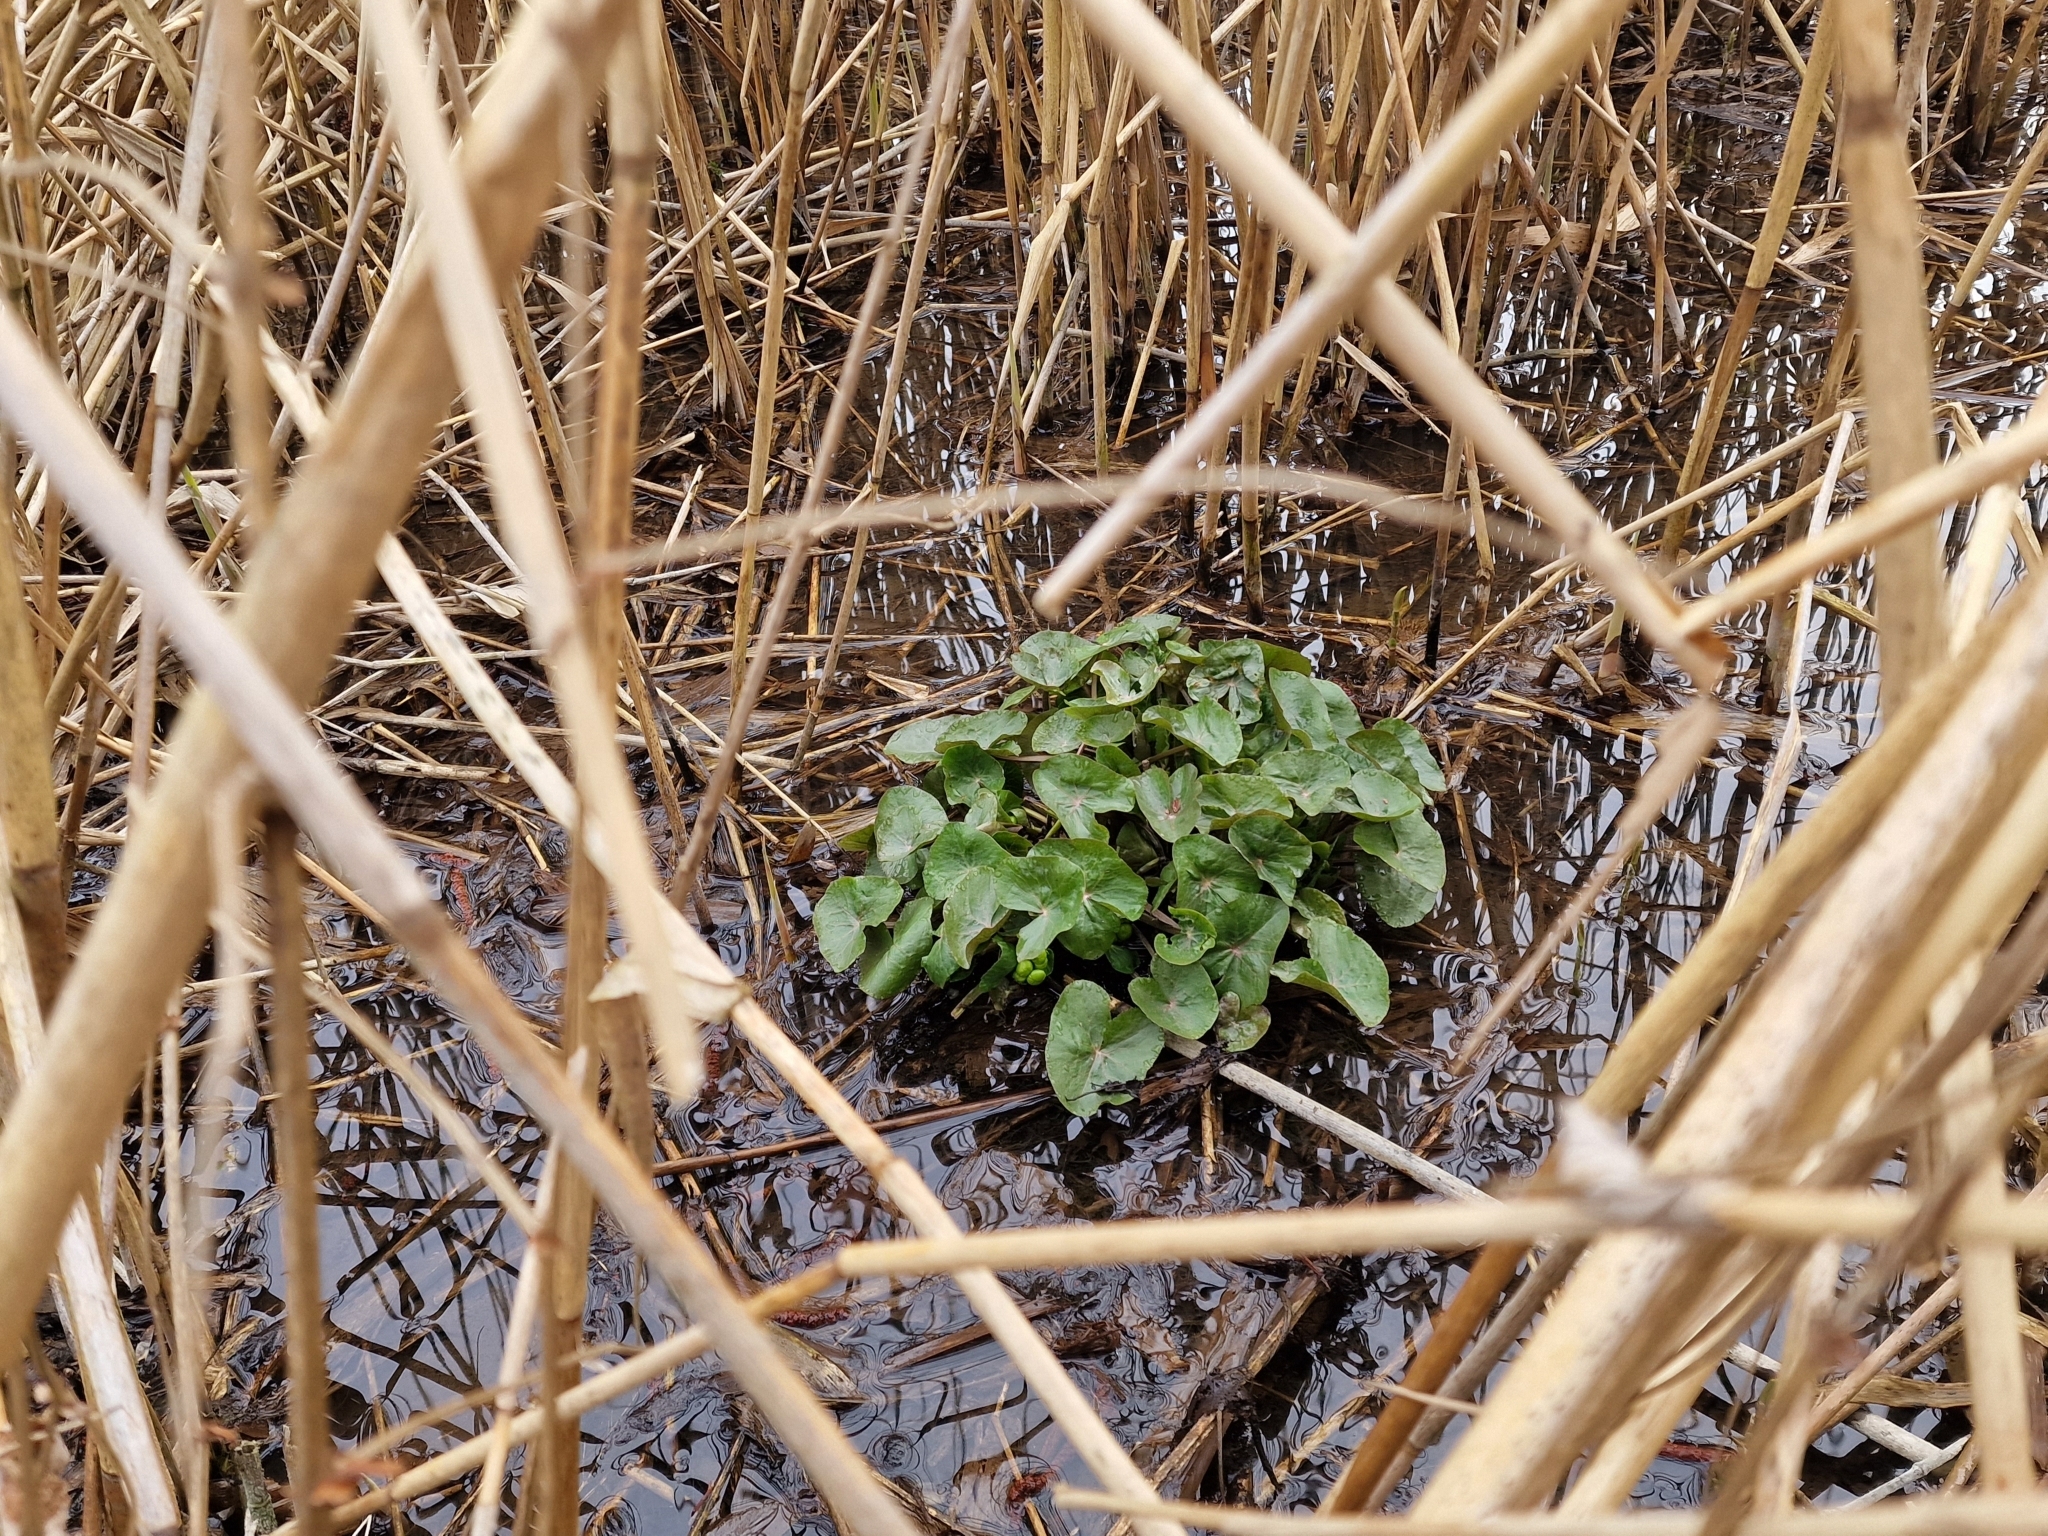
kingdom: Plantae
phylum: Tracheophyta
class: Magnoliopsida
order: Ranunculales
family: Ranunculaceae
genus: Caltha
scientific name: Caltha palustris
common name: Marsh marigold
